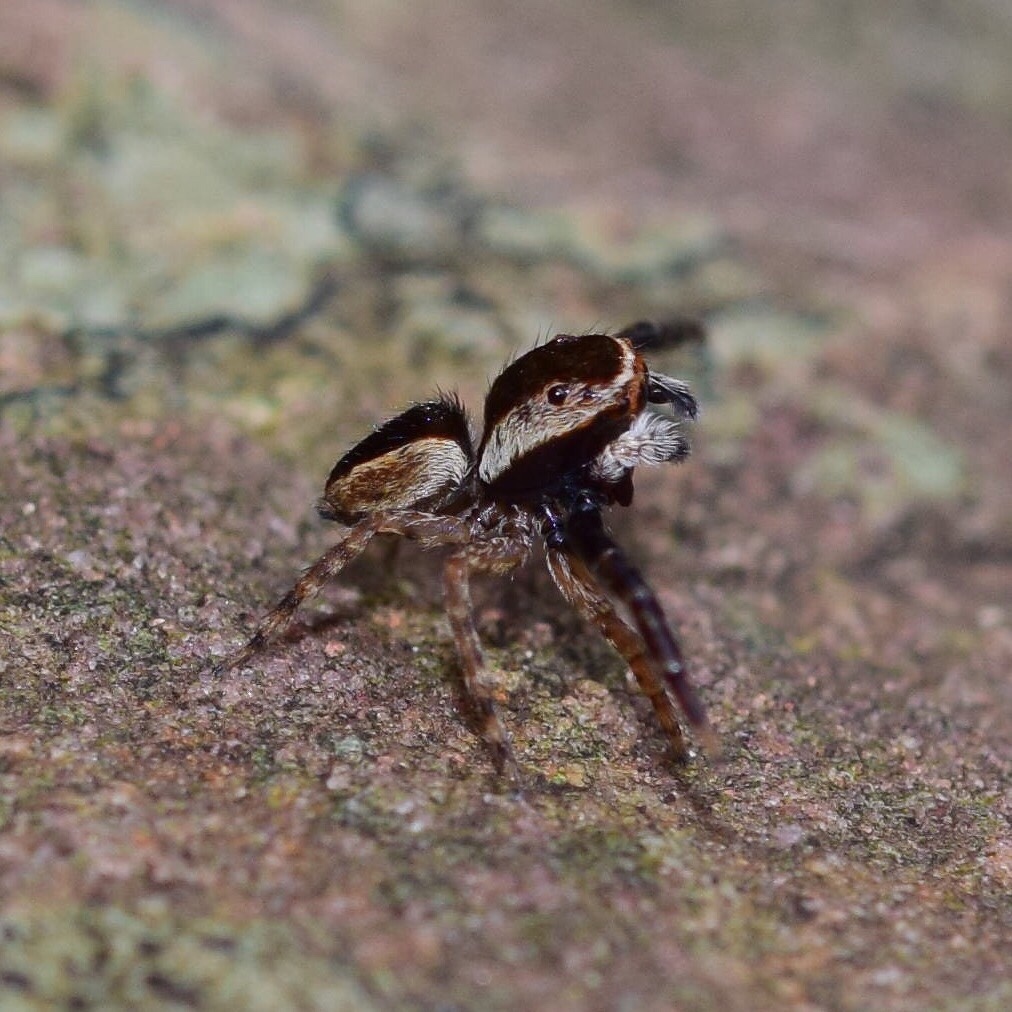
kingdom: Animalia
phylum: Arthropoda
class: Arachnida
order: Araneae
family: Salticidae
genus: Thyenula
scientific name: Thyenula leighi
